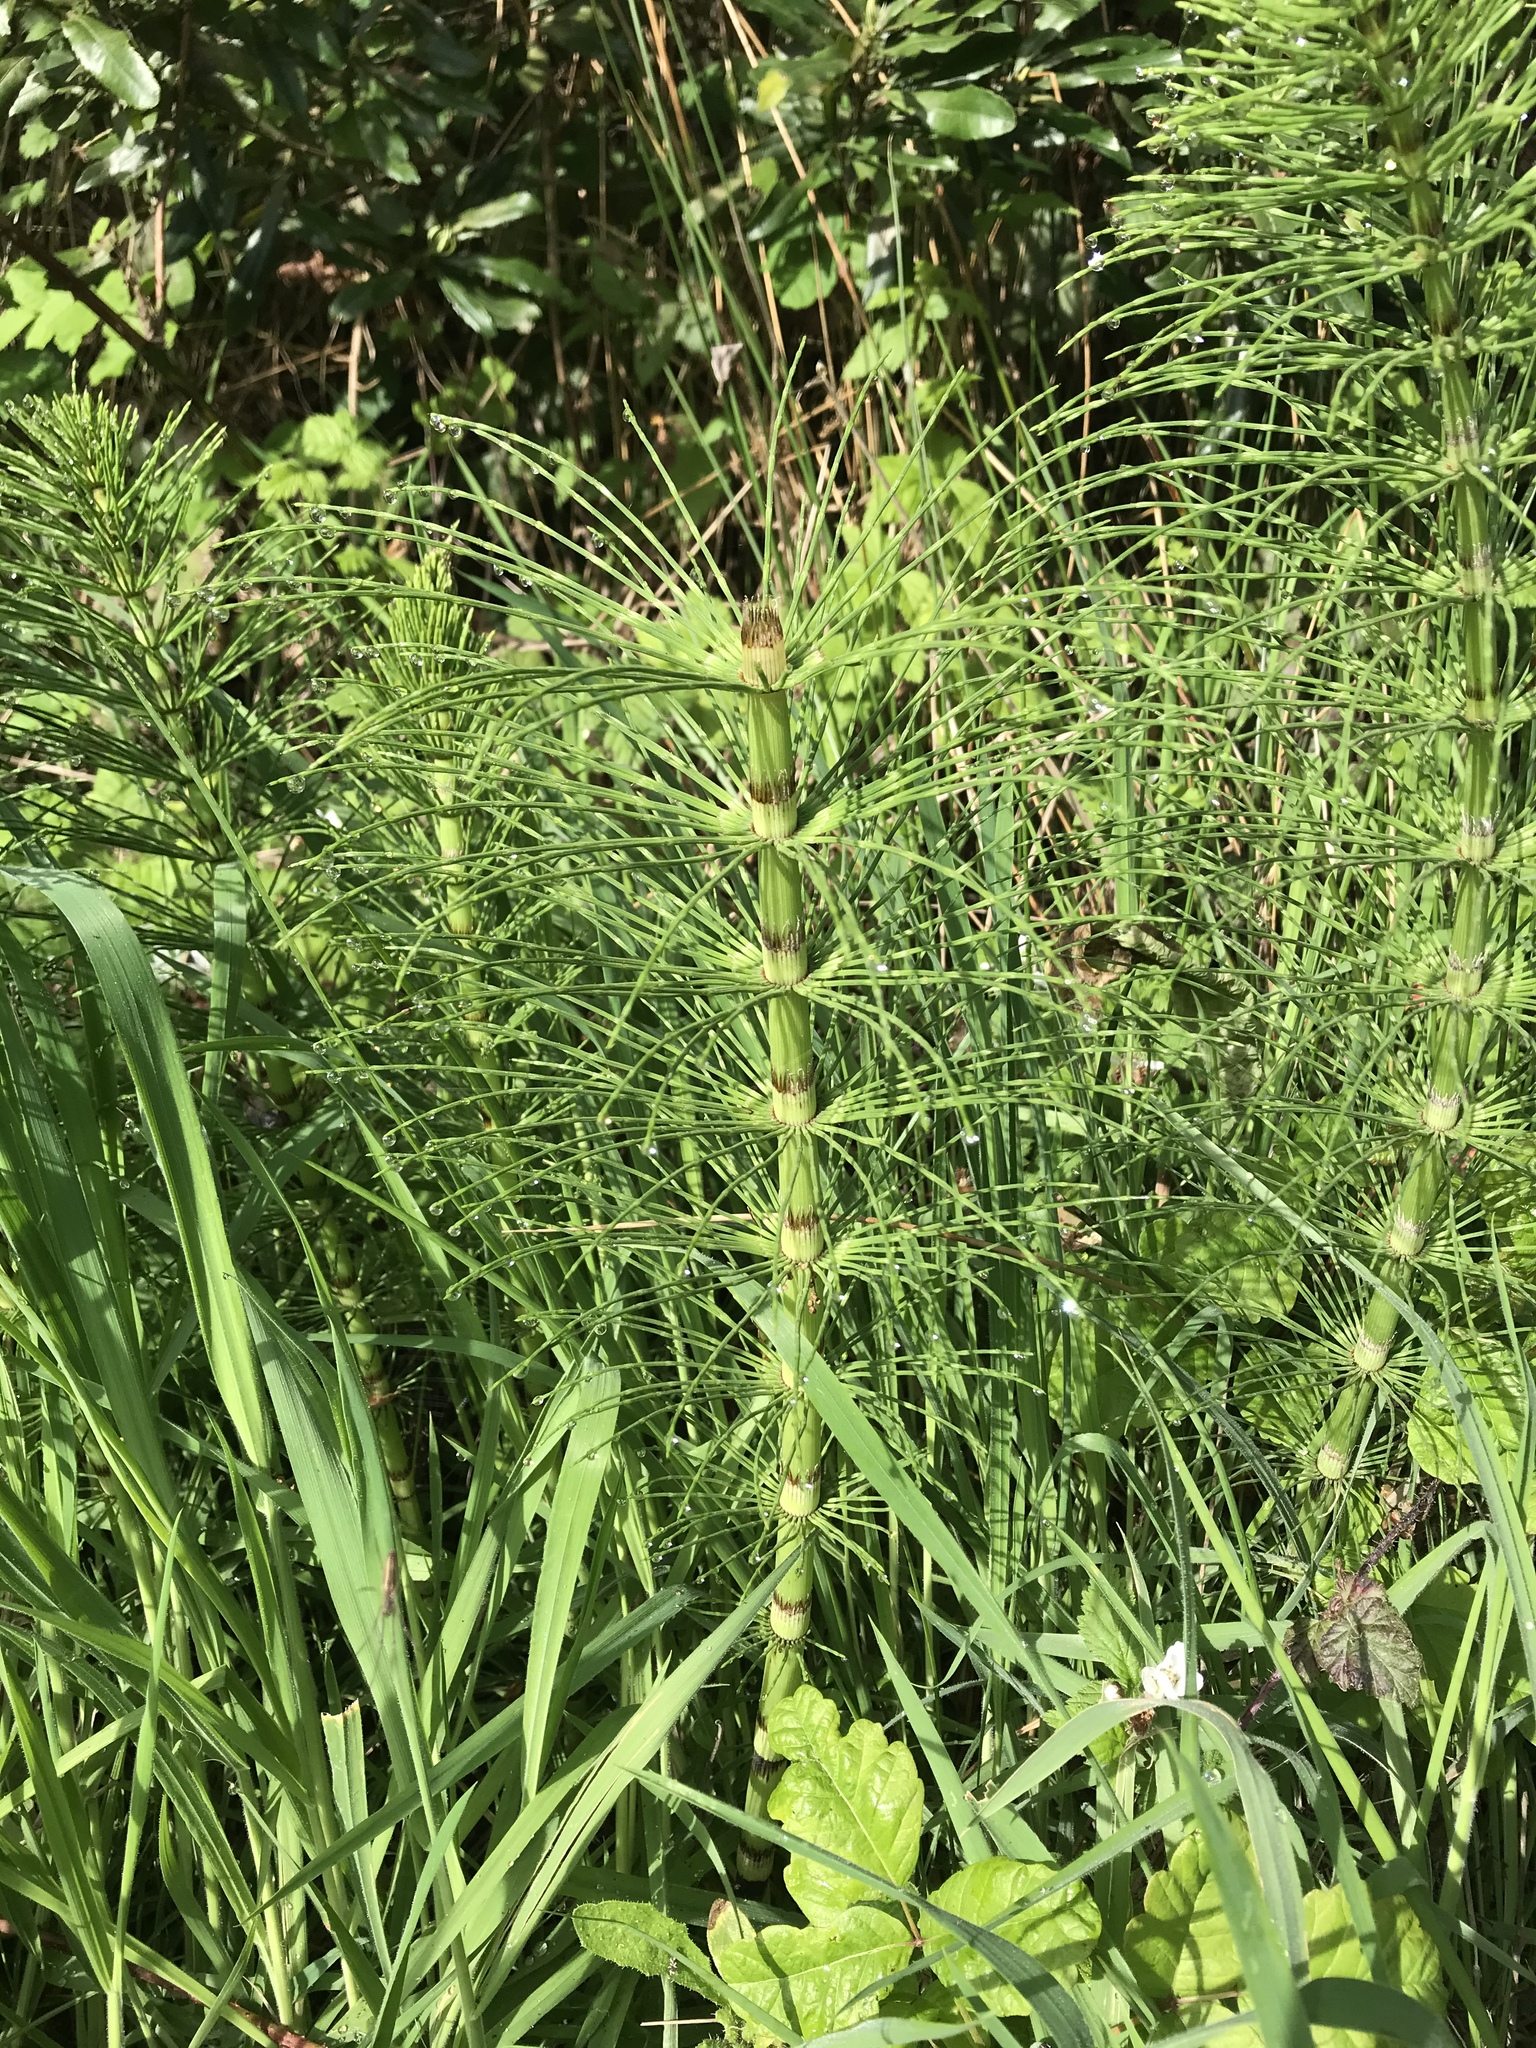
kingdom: Plantae
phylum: Tracheophyta
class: Polypodiopsida
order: Equisetales
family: Equisetaceae
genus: Equisetum
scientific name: Equisetum telmateia
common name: Great horsetail
